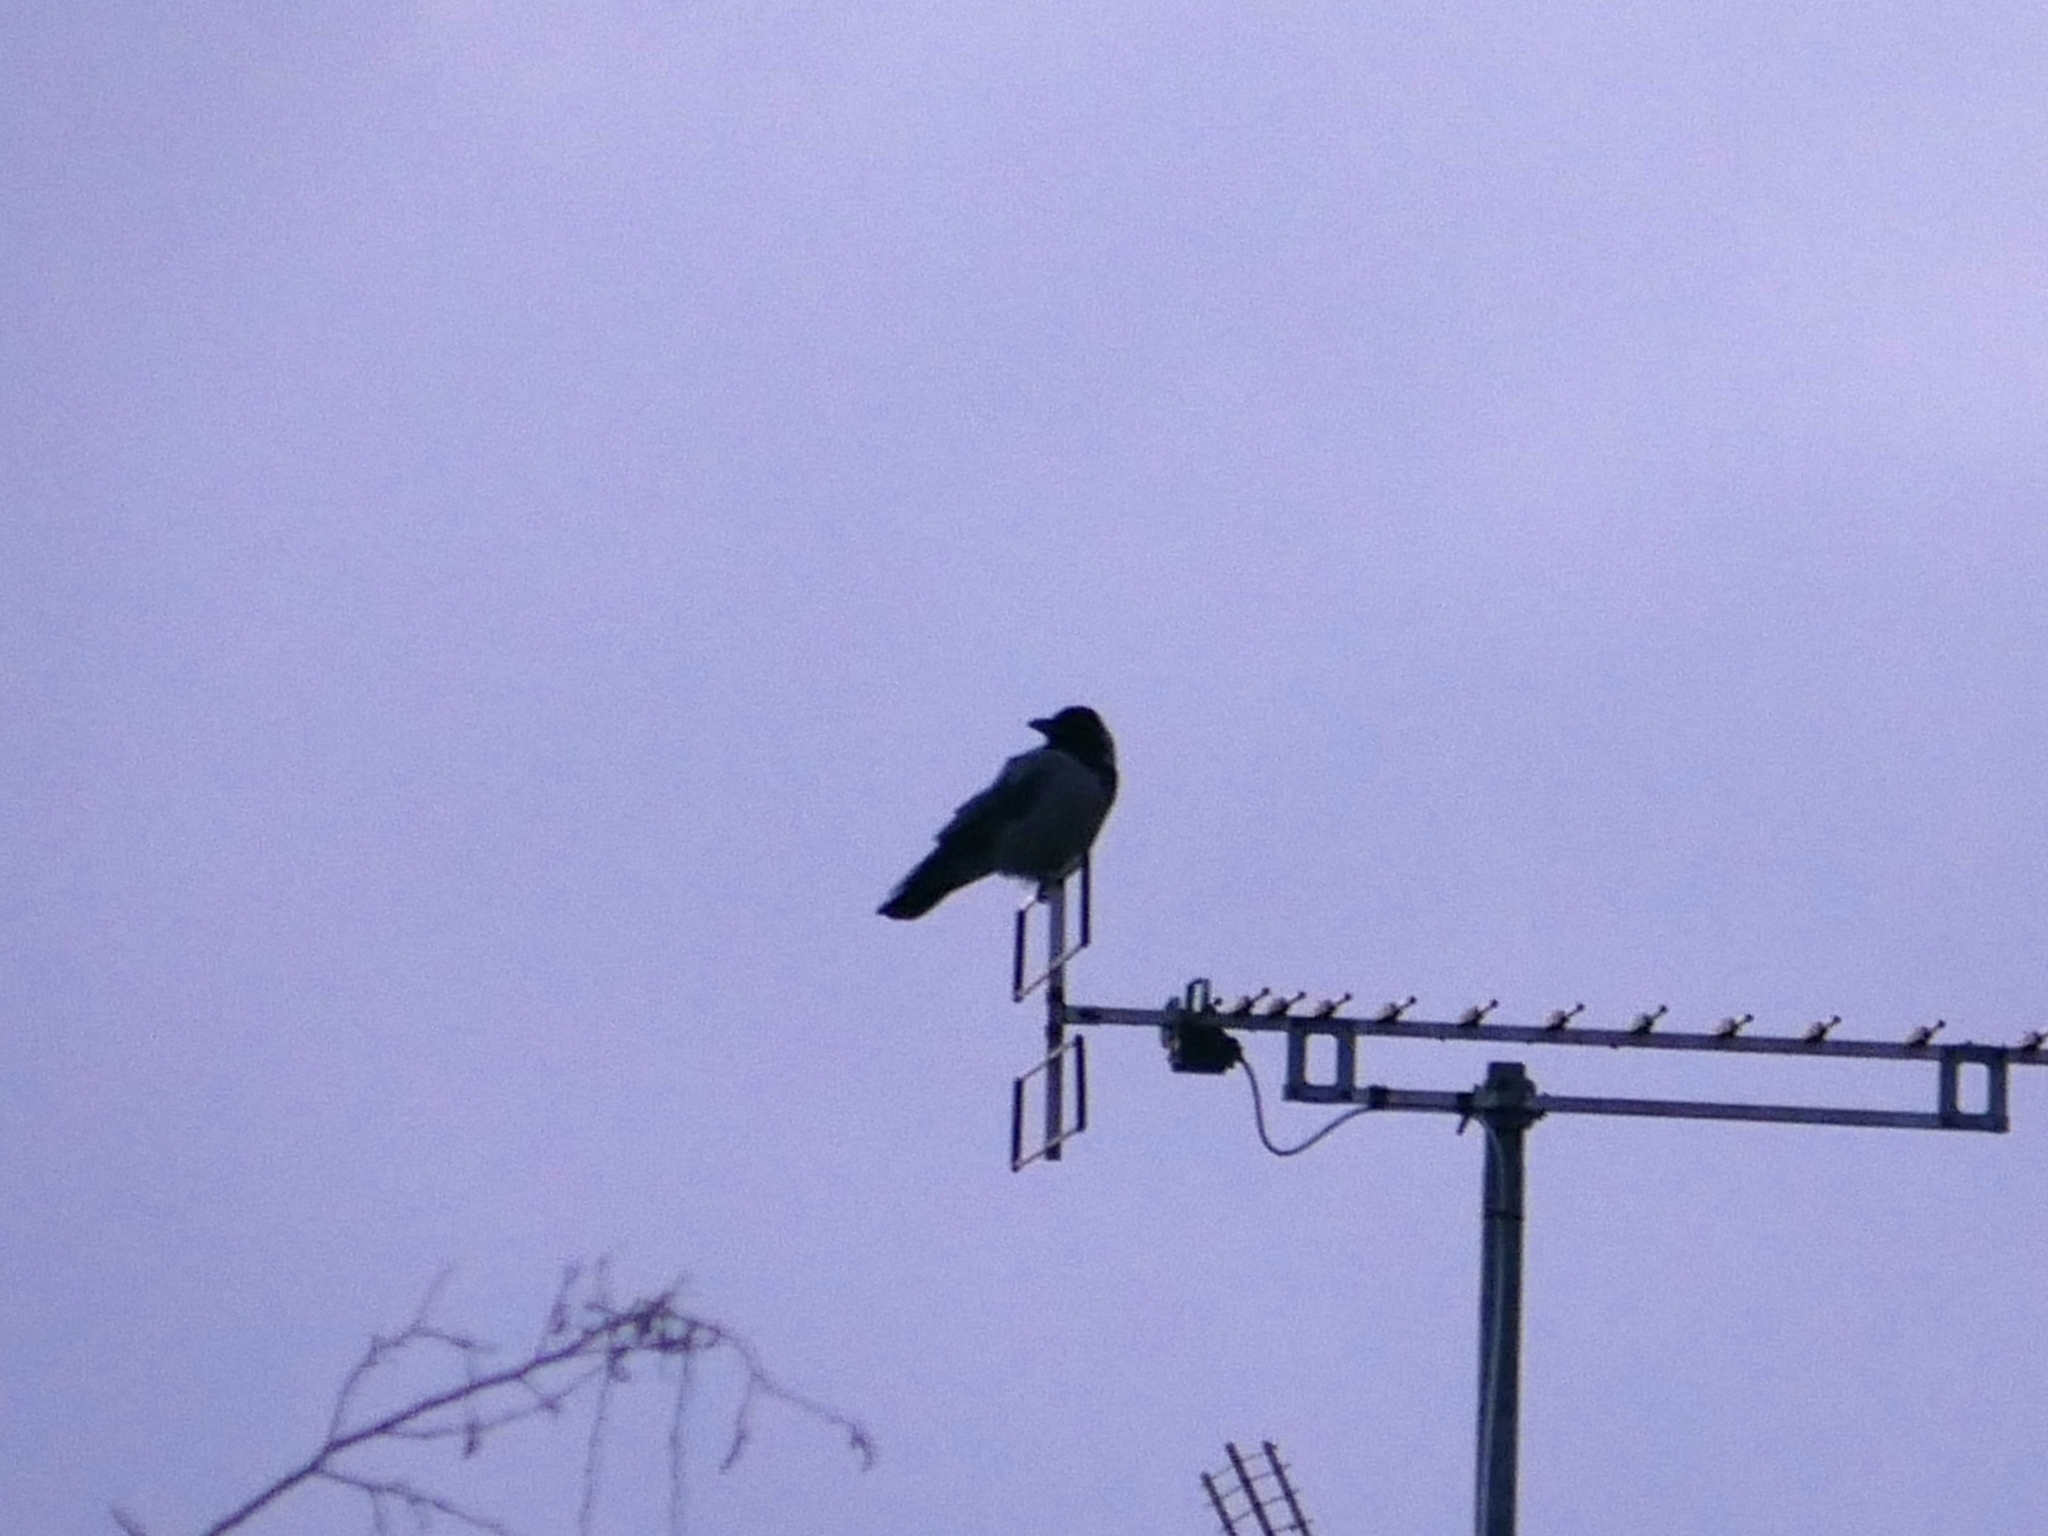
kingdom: Animalia
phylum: Chordata
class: Aves
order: Passeriformes
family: Corvidae
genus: Corvus
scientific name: Corvus cornix
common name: Hooded crow
